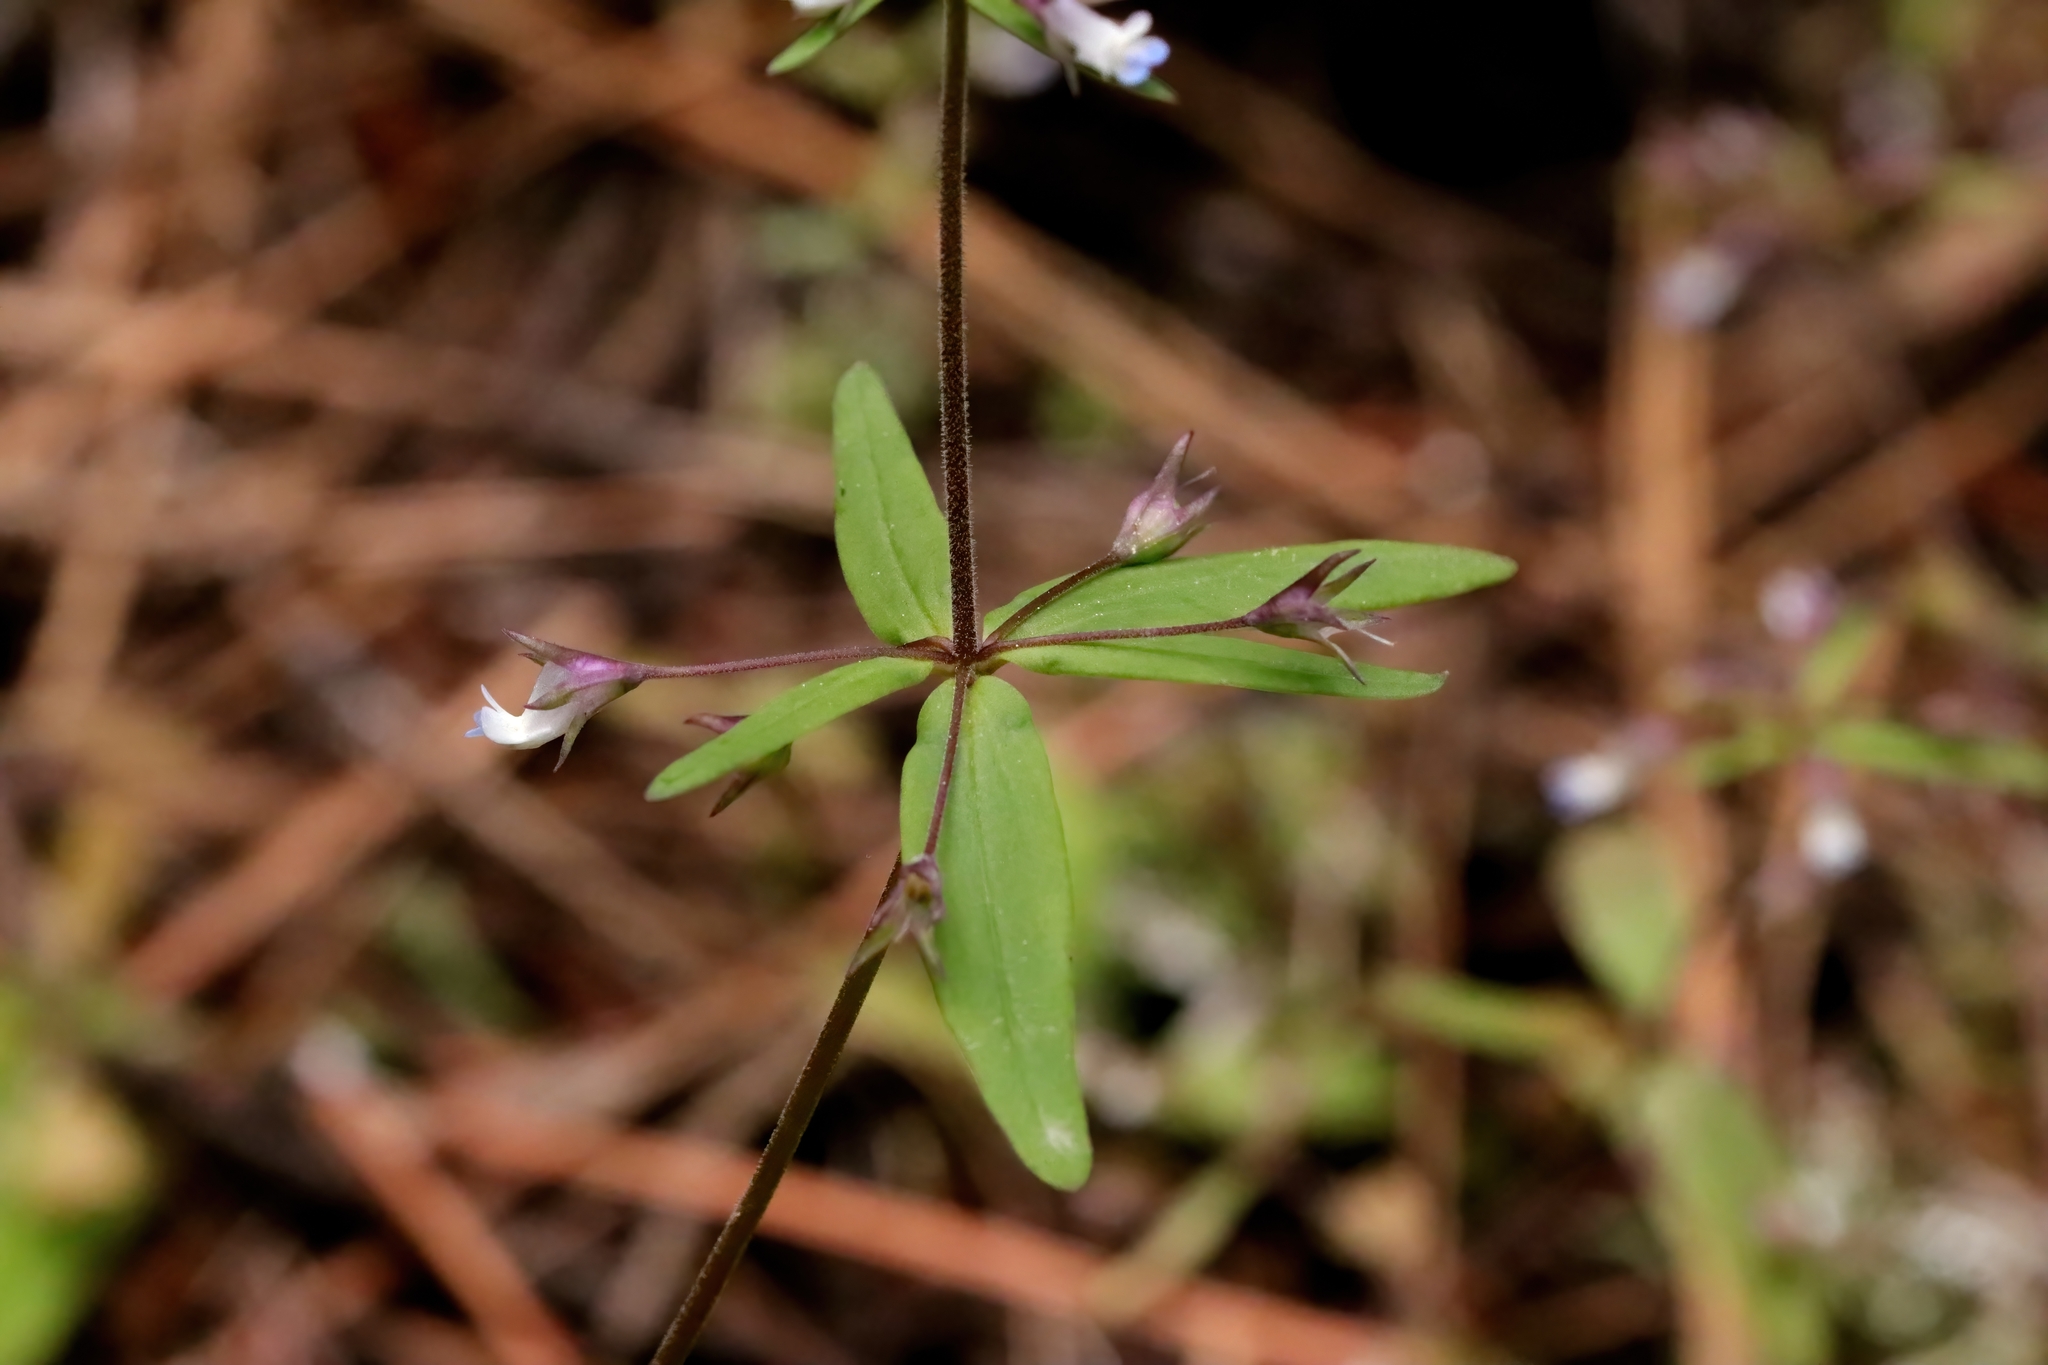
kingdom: Plantae
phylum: Tracheophyta
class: Magnoliopsida
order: Lamiales
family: Plantaginaceae
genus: Collinsia
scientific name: Collinsia parviflora
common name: Blue-lips
